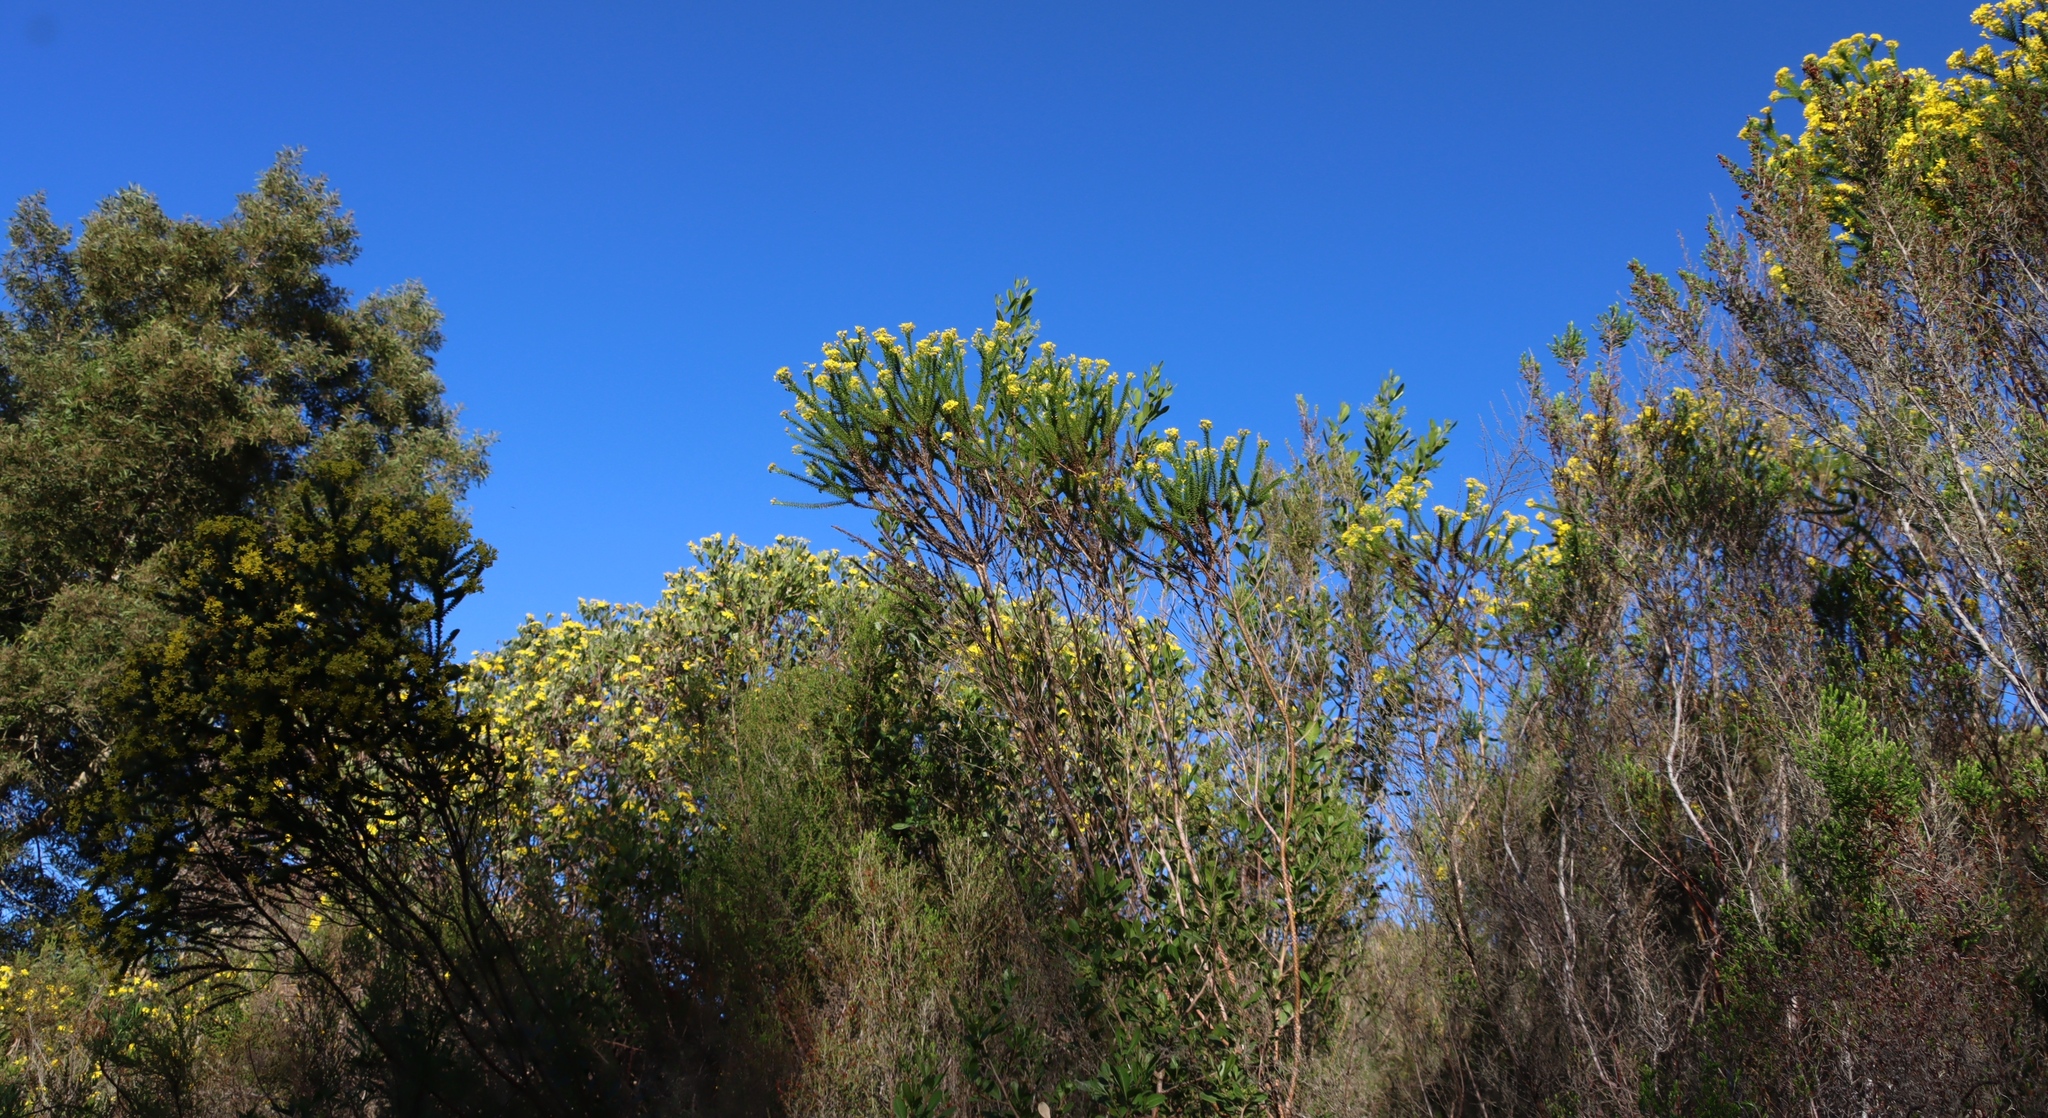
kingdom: Plantae
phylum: Tracheophyta
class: Magnoliopsida
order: Asterales
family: Asteraceae
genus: Euryops
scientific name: Euryops virgineus
